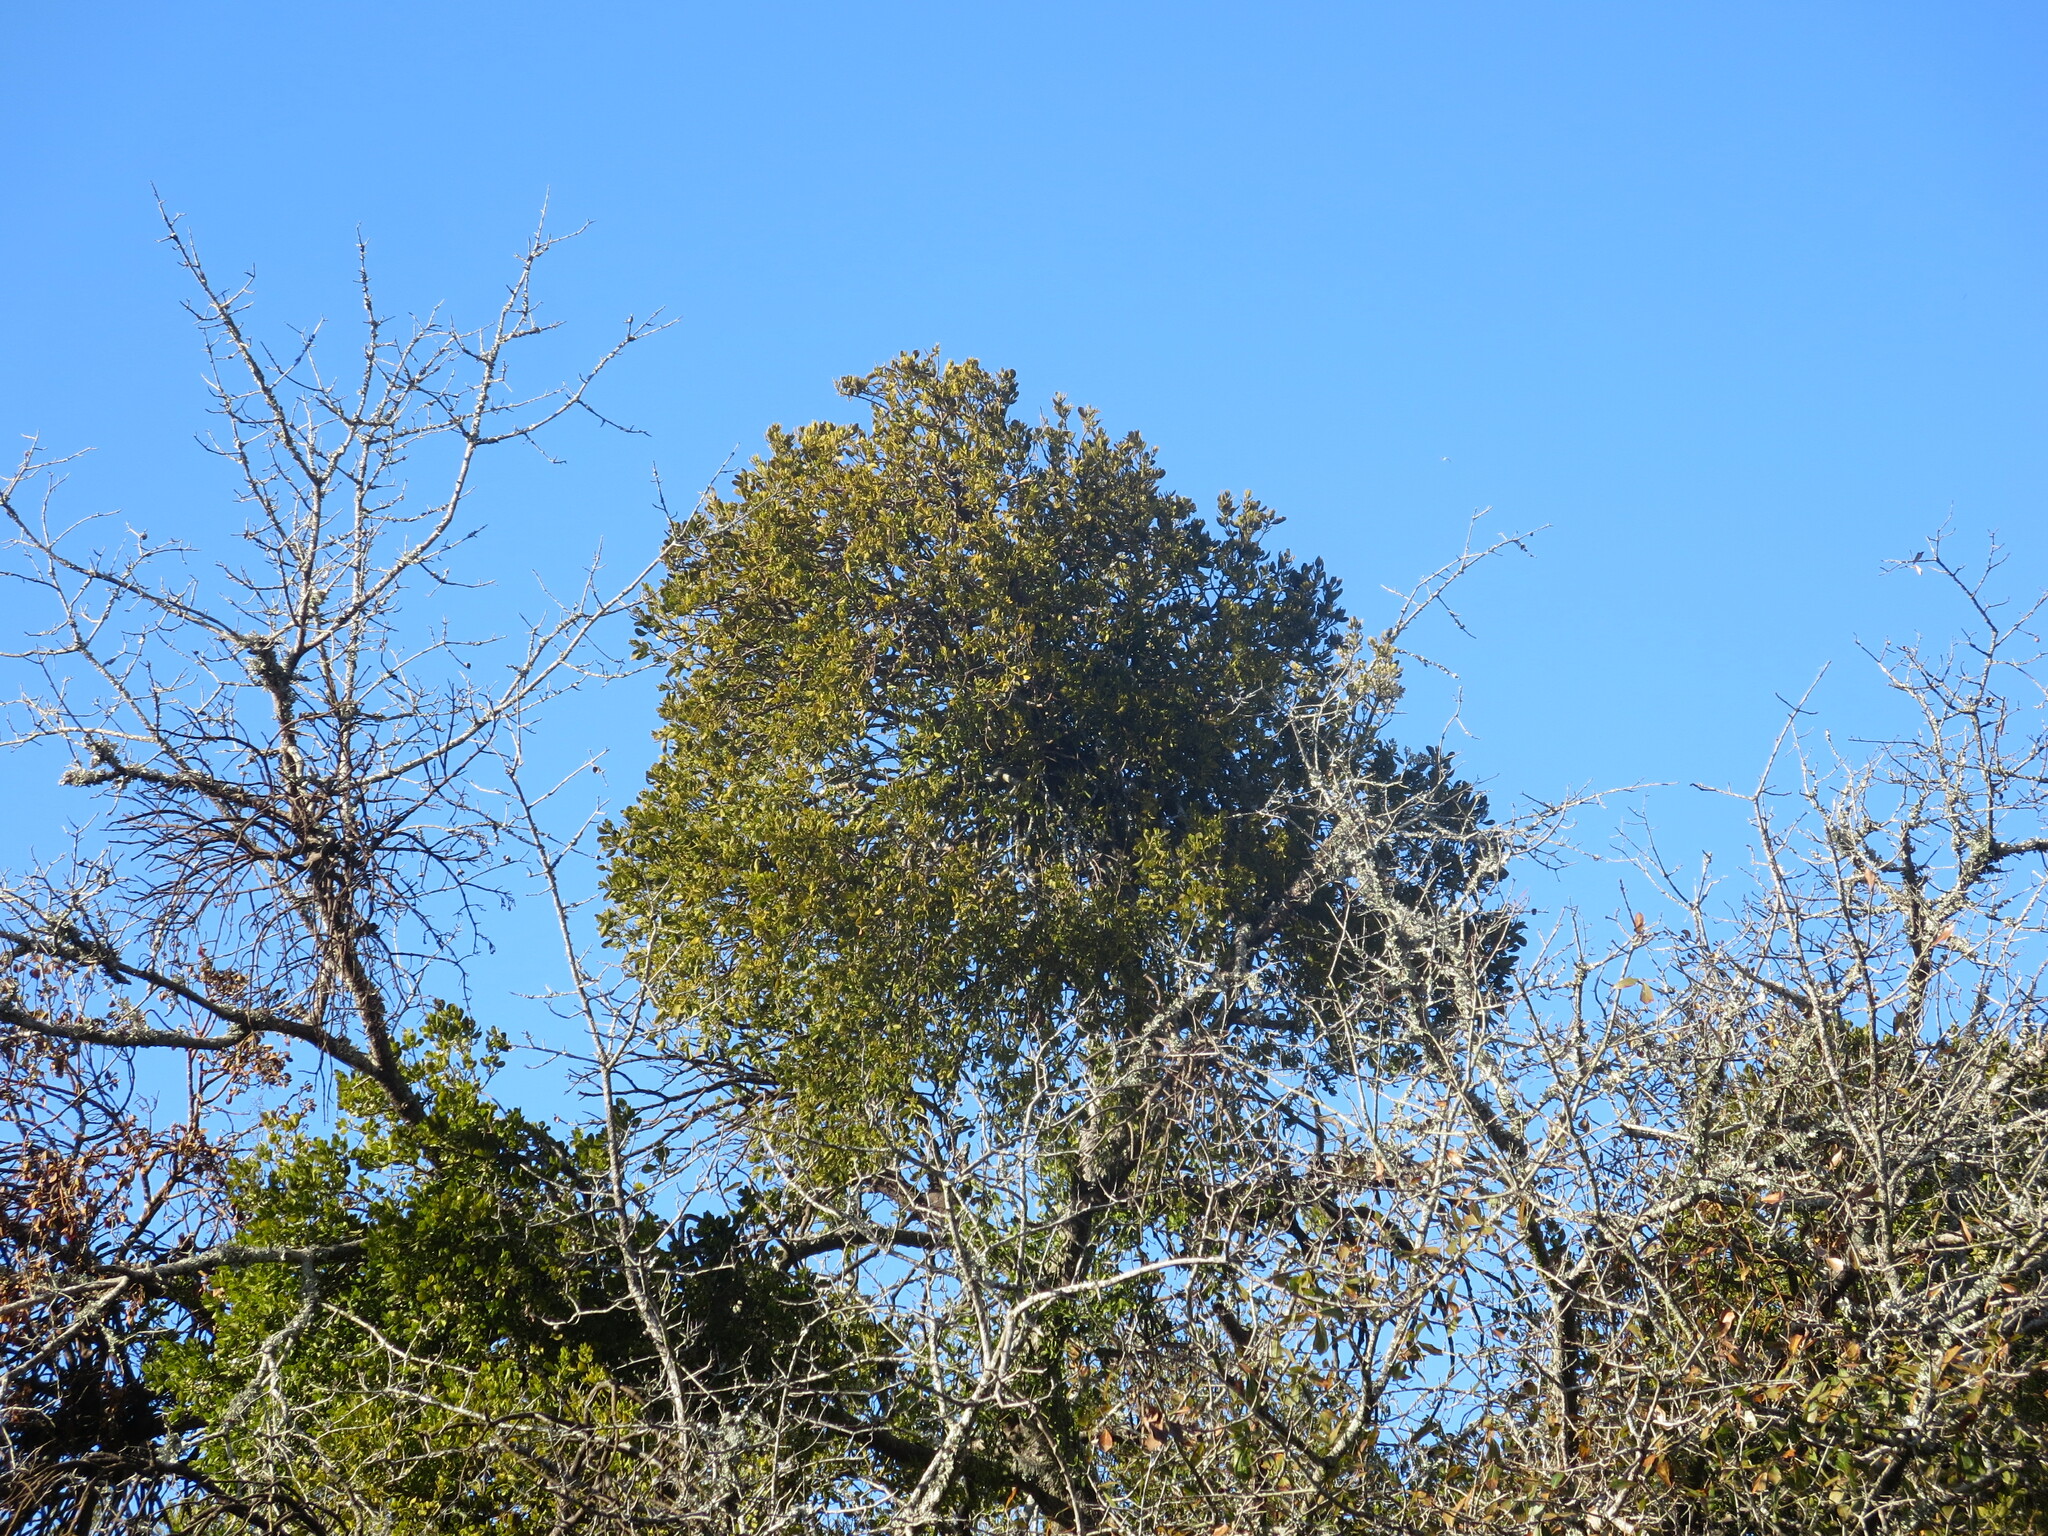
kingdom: Plantae
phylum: Tracheophyta
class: Magnoliopsida
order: Santalales
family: Viscaceae
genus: Phoradendron
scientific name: Phoradendron leucarpum
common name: Pacific mistletoe
